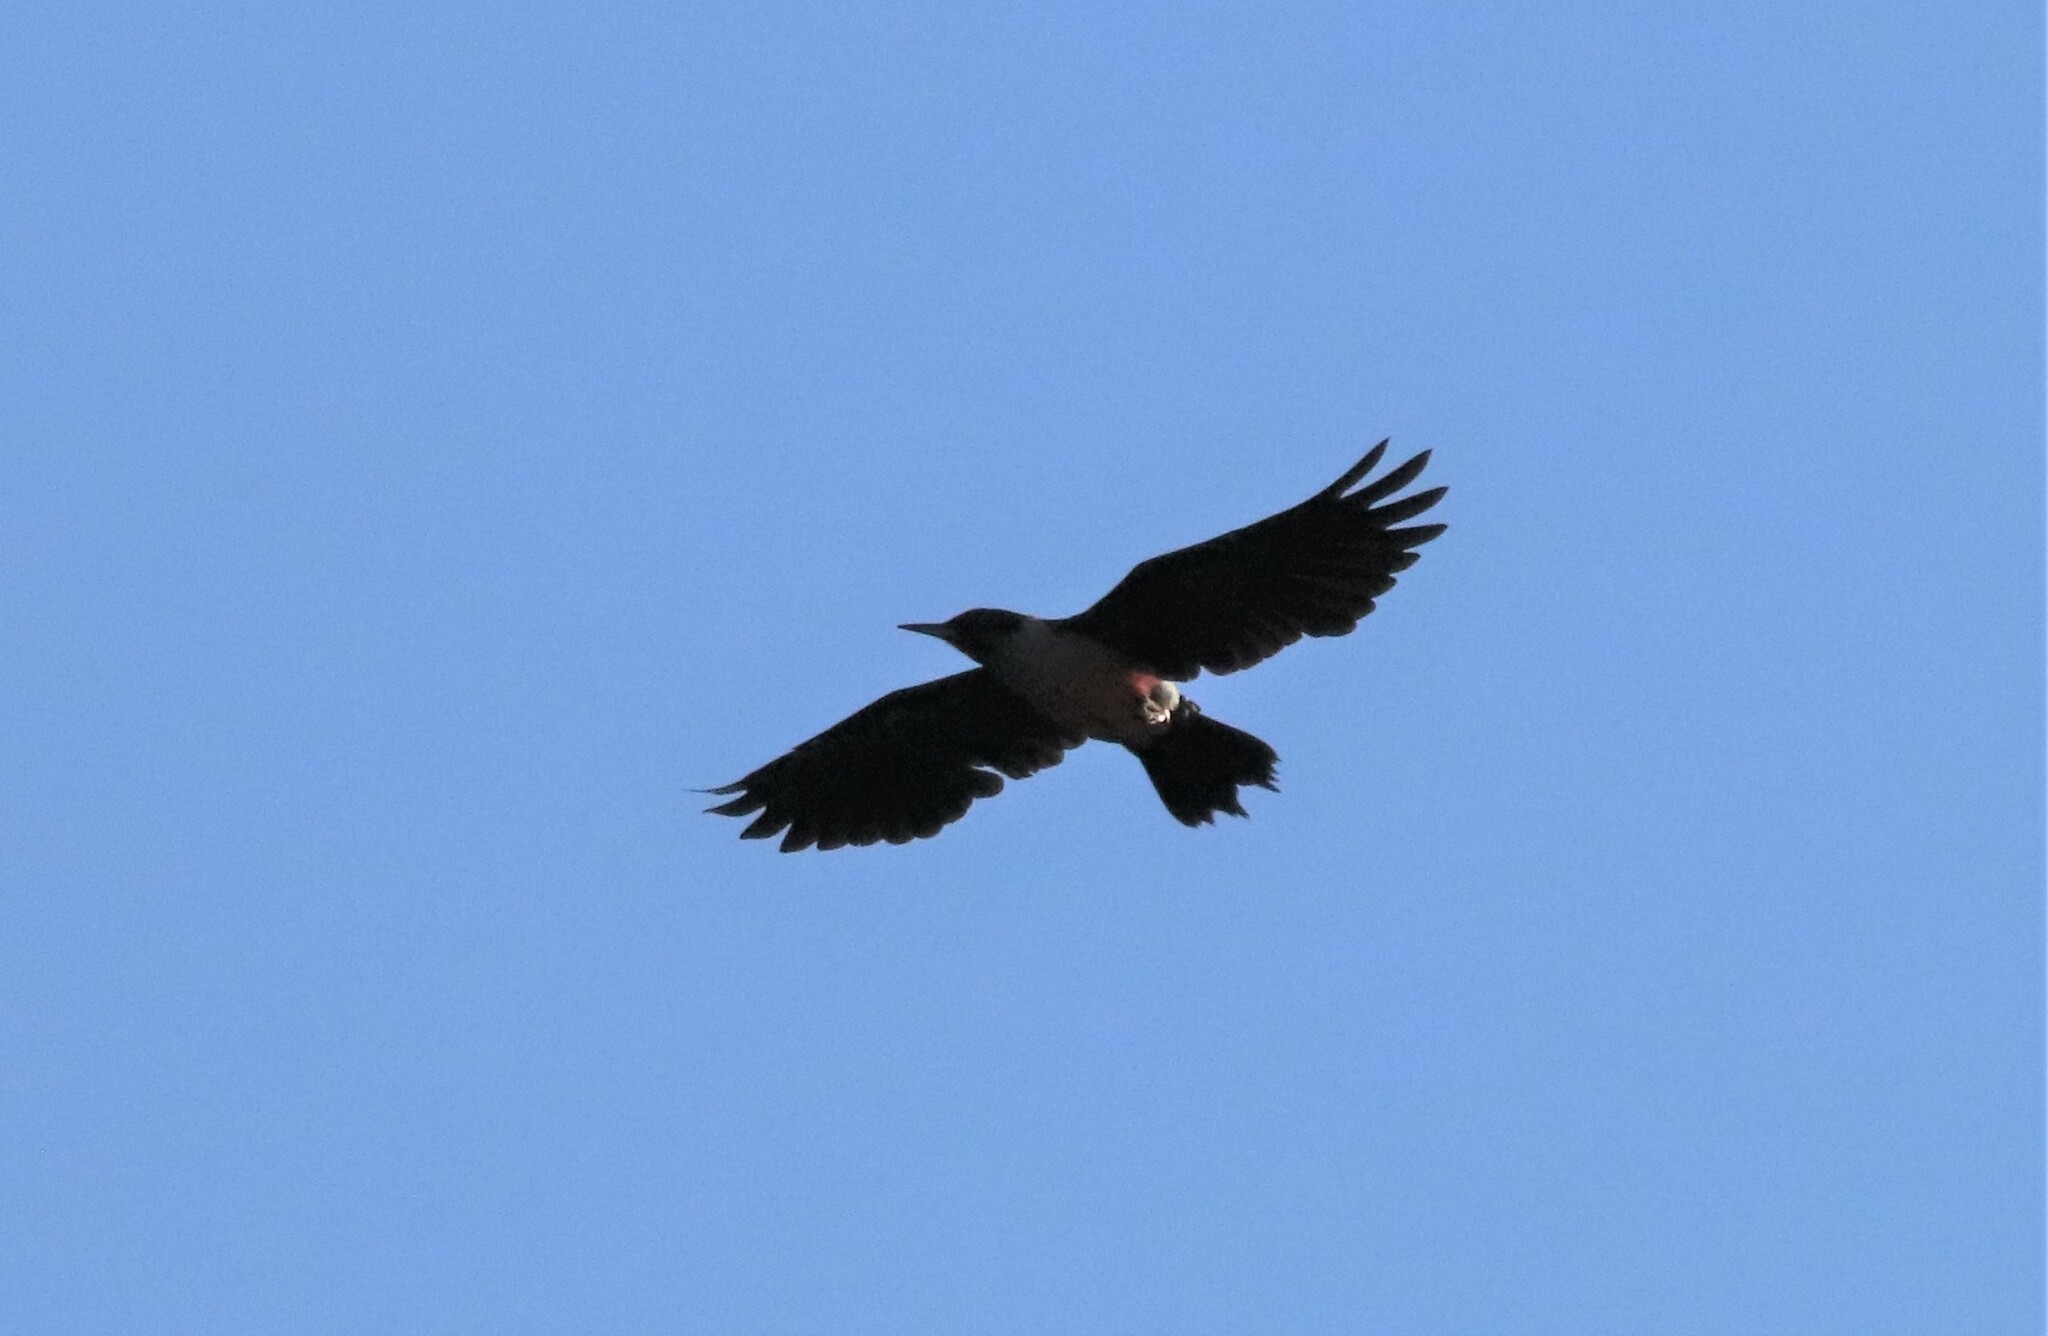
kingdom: Animalia
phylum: Chordata
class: Aves
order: Piciformes
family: Picidae
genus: Melanerpes
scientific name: Melanerpes lewis
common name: Lewis's woodpecker
